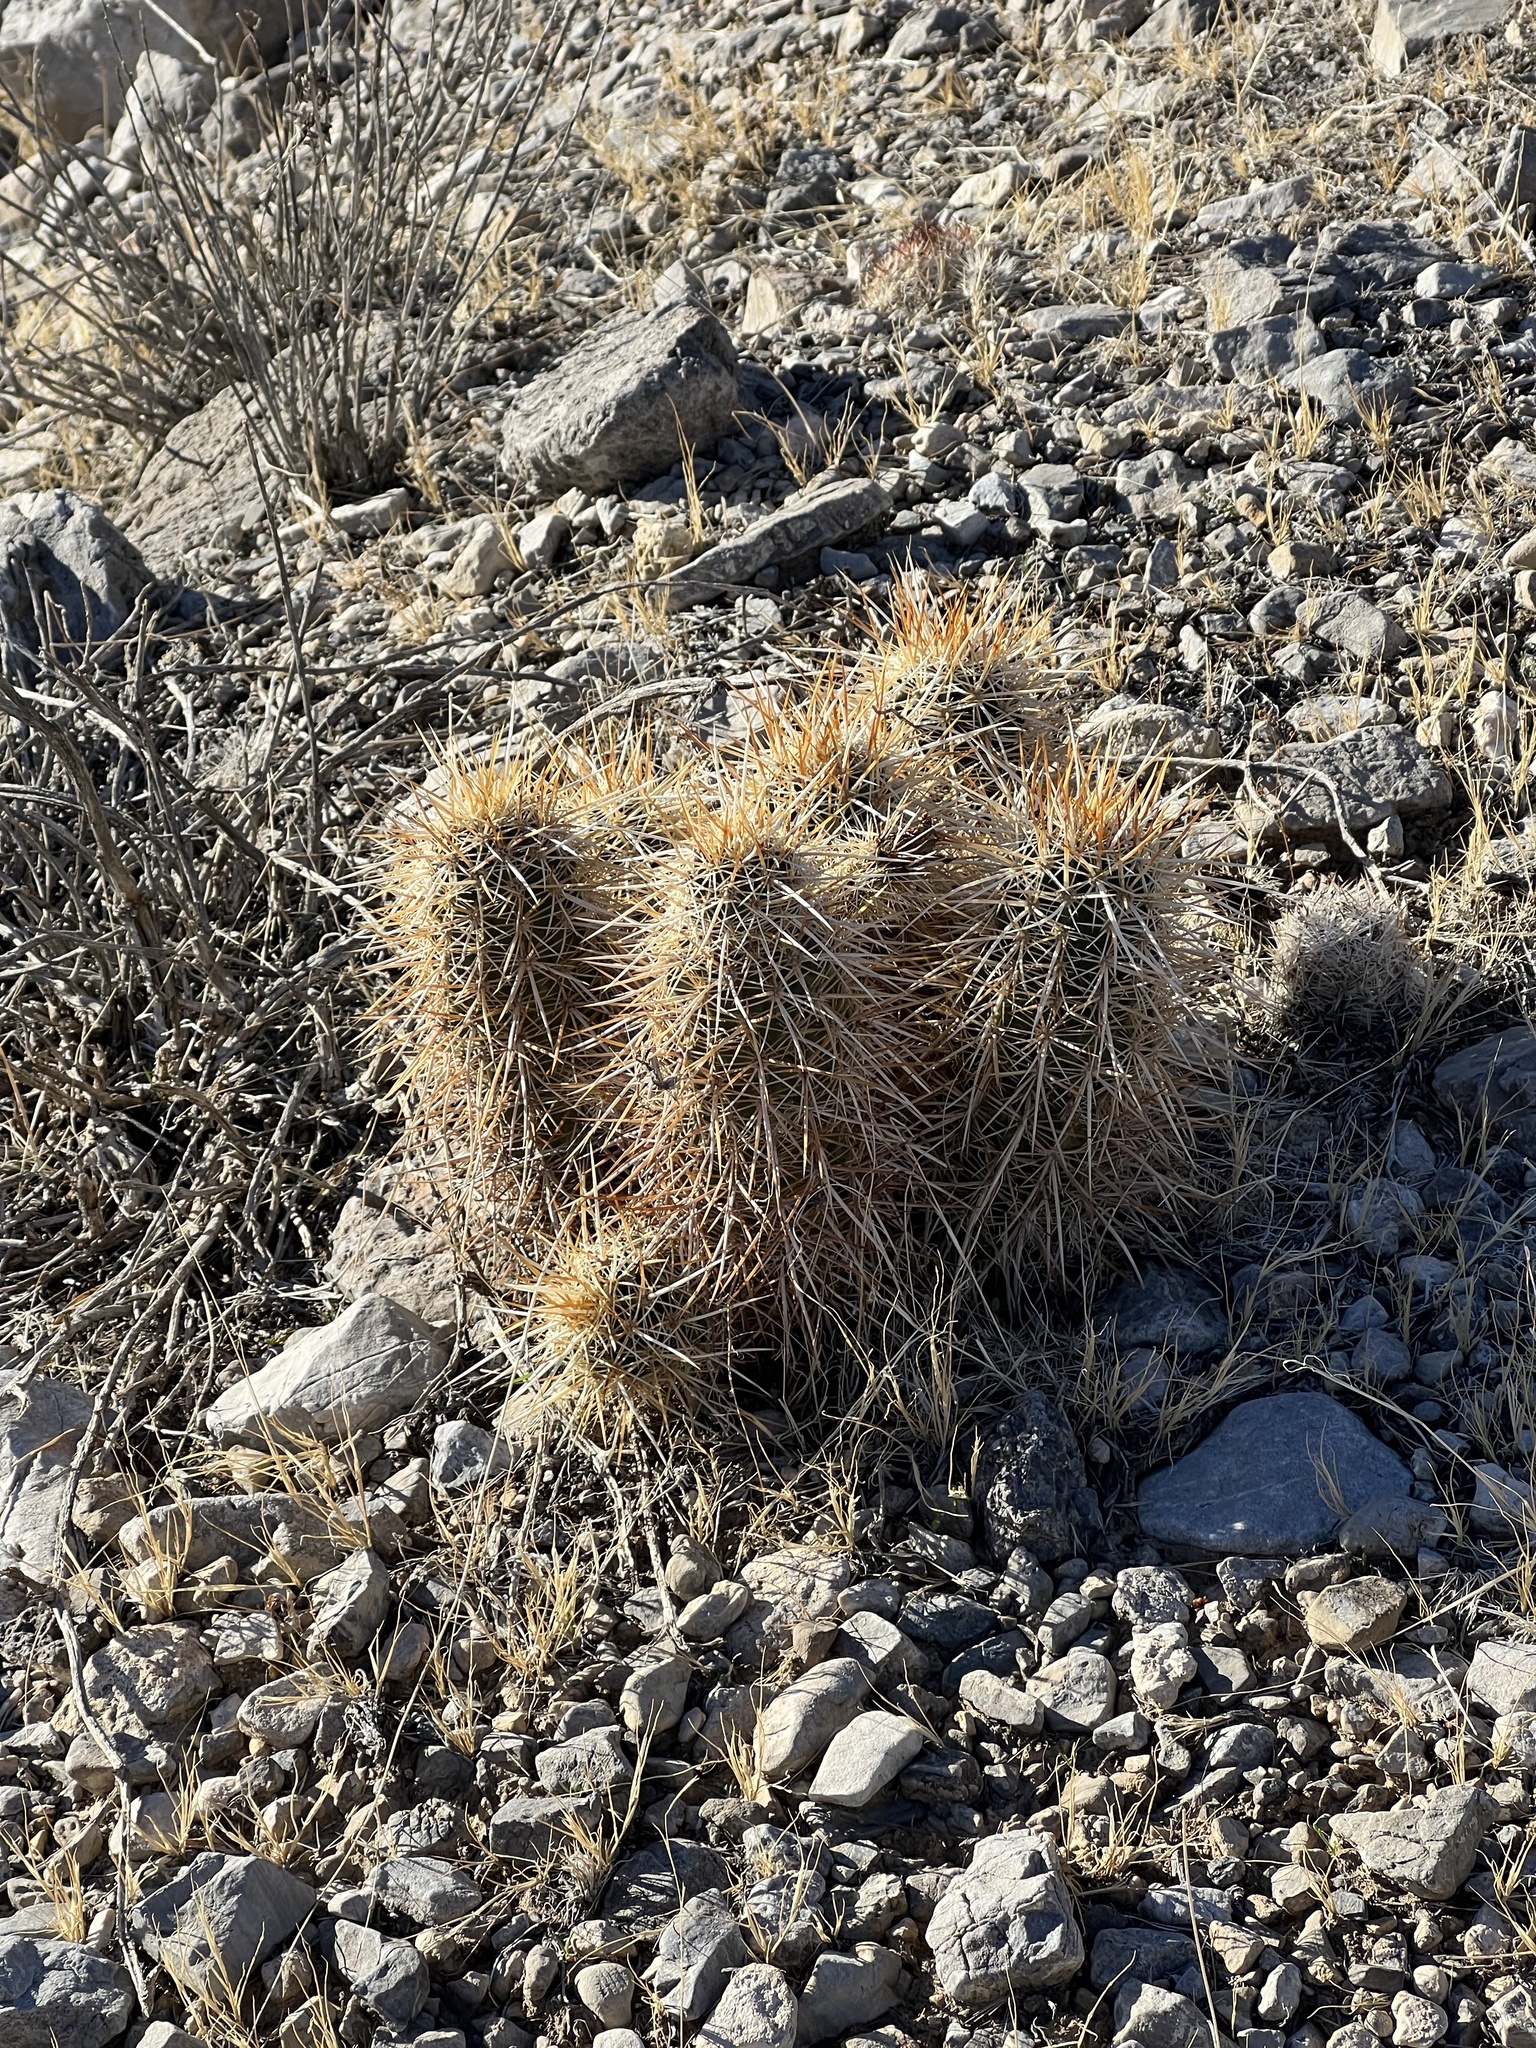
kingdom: Plantae
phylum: Tracheophyta
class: Magnoliopsida
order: Caryophyllales
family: Cactaceae
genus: Echinocereus
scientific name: Echinocereus engelmannii
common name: Engelmann's hedgehog cactus
